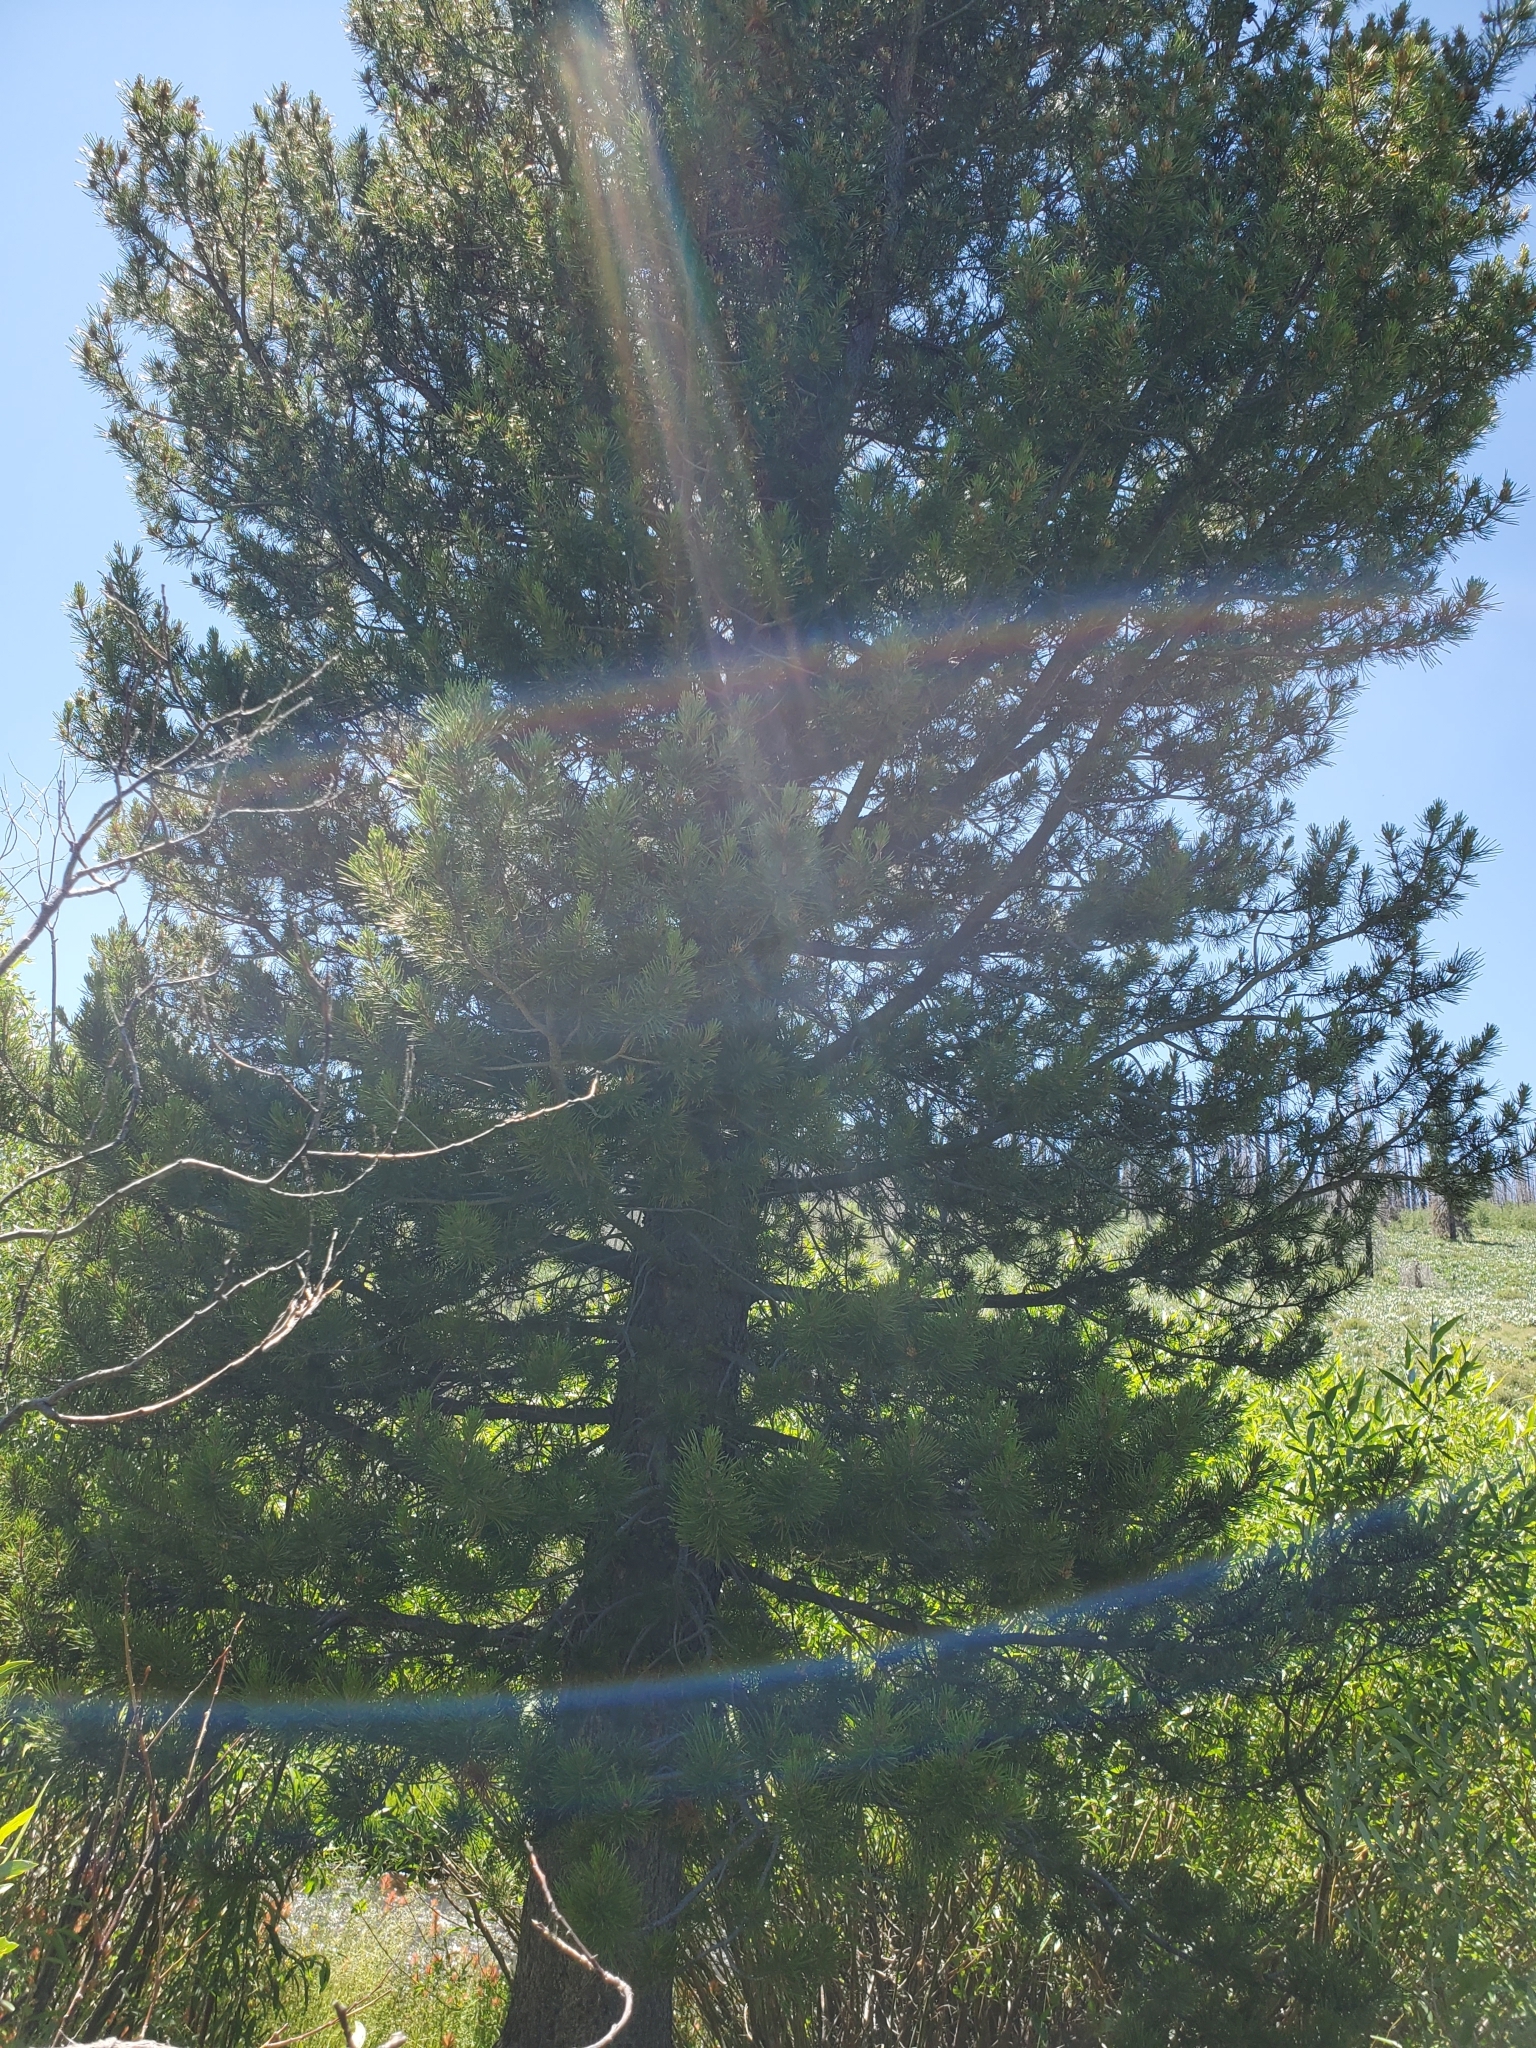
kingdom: Plantae
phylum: Tracheophyta
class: Pinopsida
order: Pinales
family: Pinaceae
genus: Pinus
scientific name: Pinus contorta
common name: Lodgepole pine
